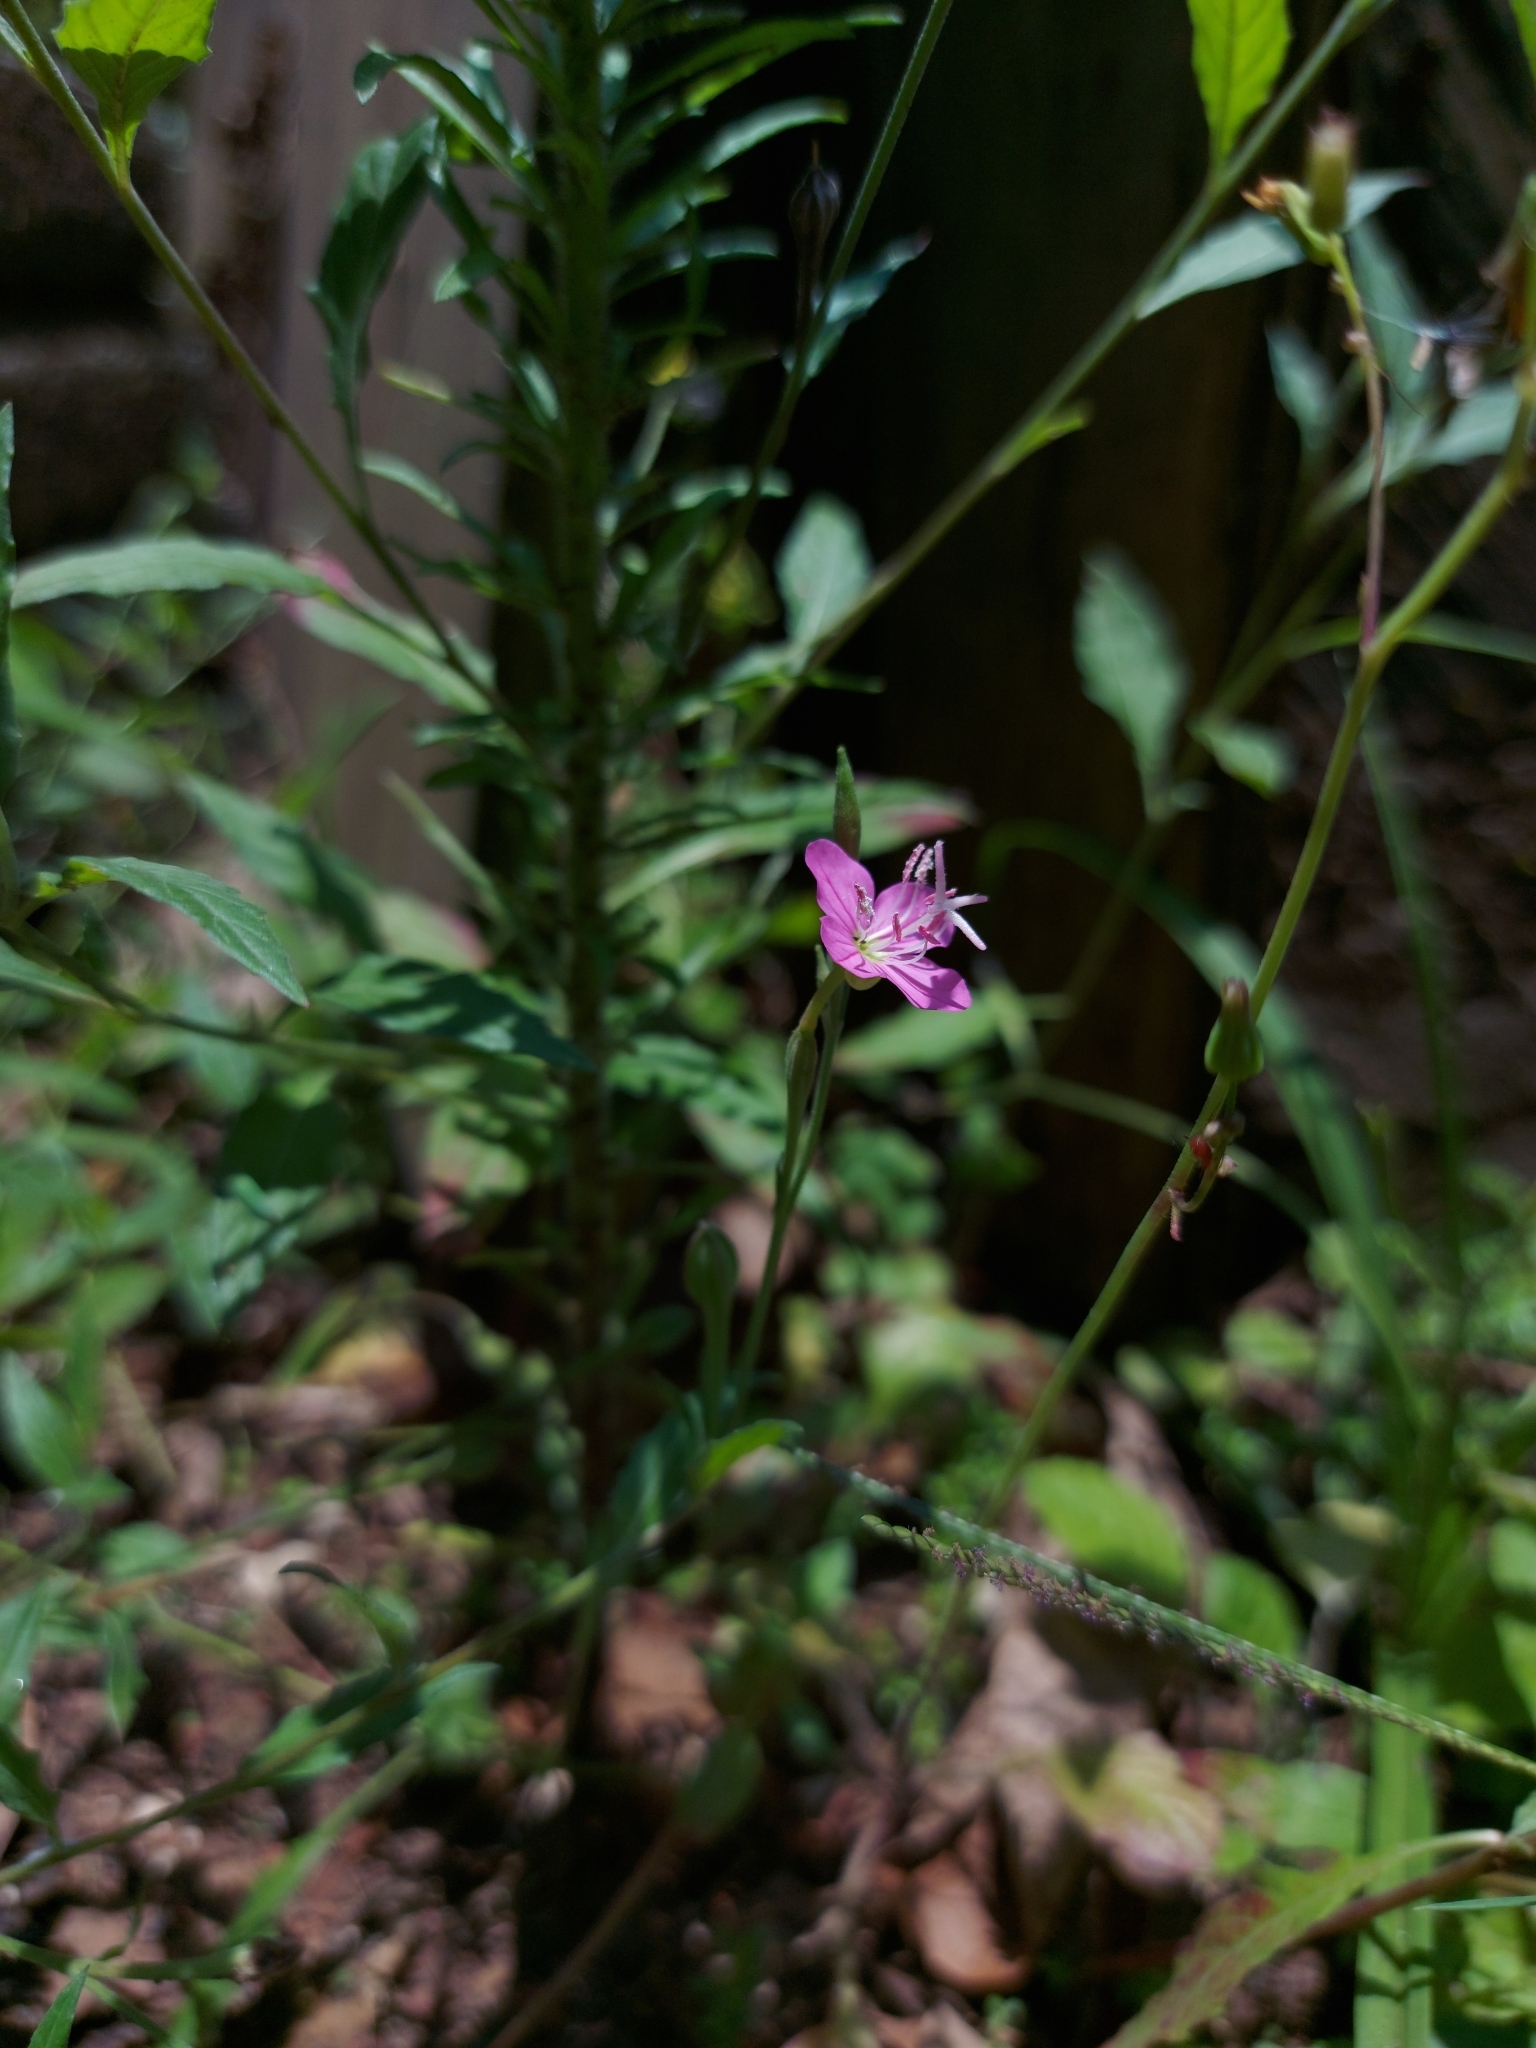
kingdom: Plantae
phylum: Tracheophyta
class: Magnoliopsida
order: Myrtales
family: Onagraceae
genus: Oenothera
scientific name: Oenothera rosea
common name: Rosy evening-primrose
